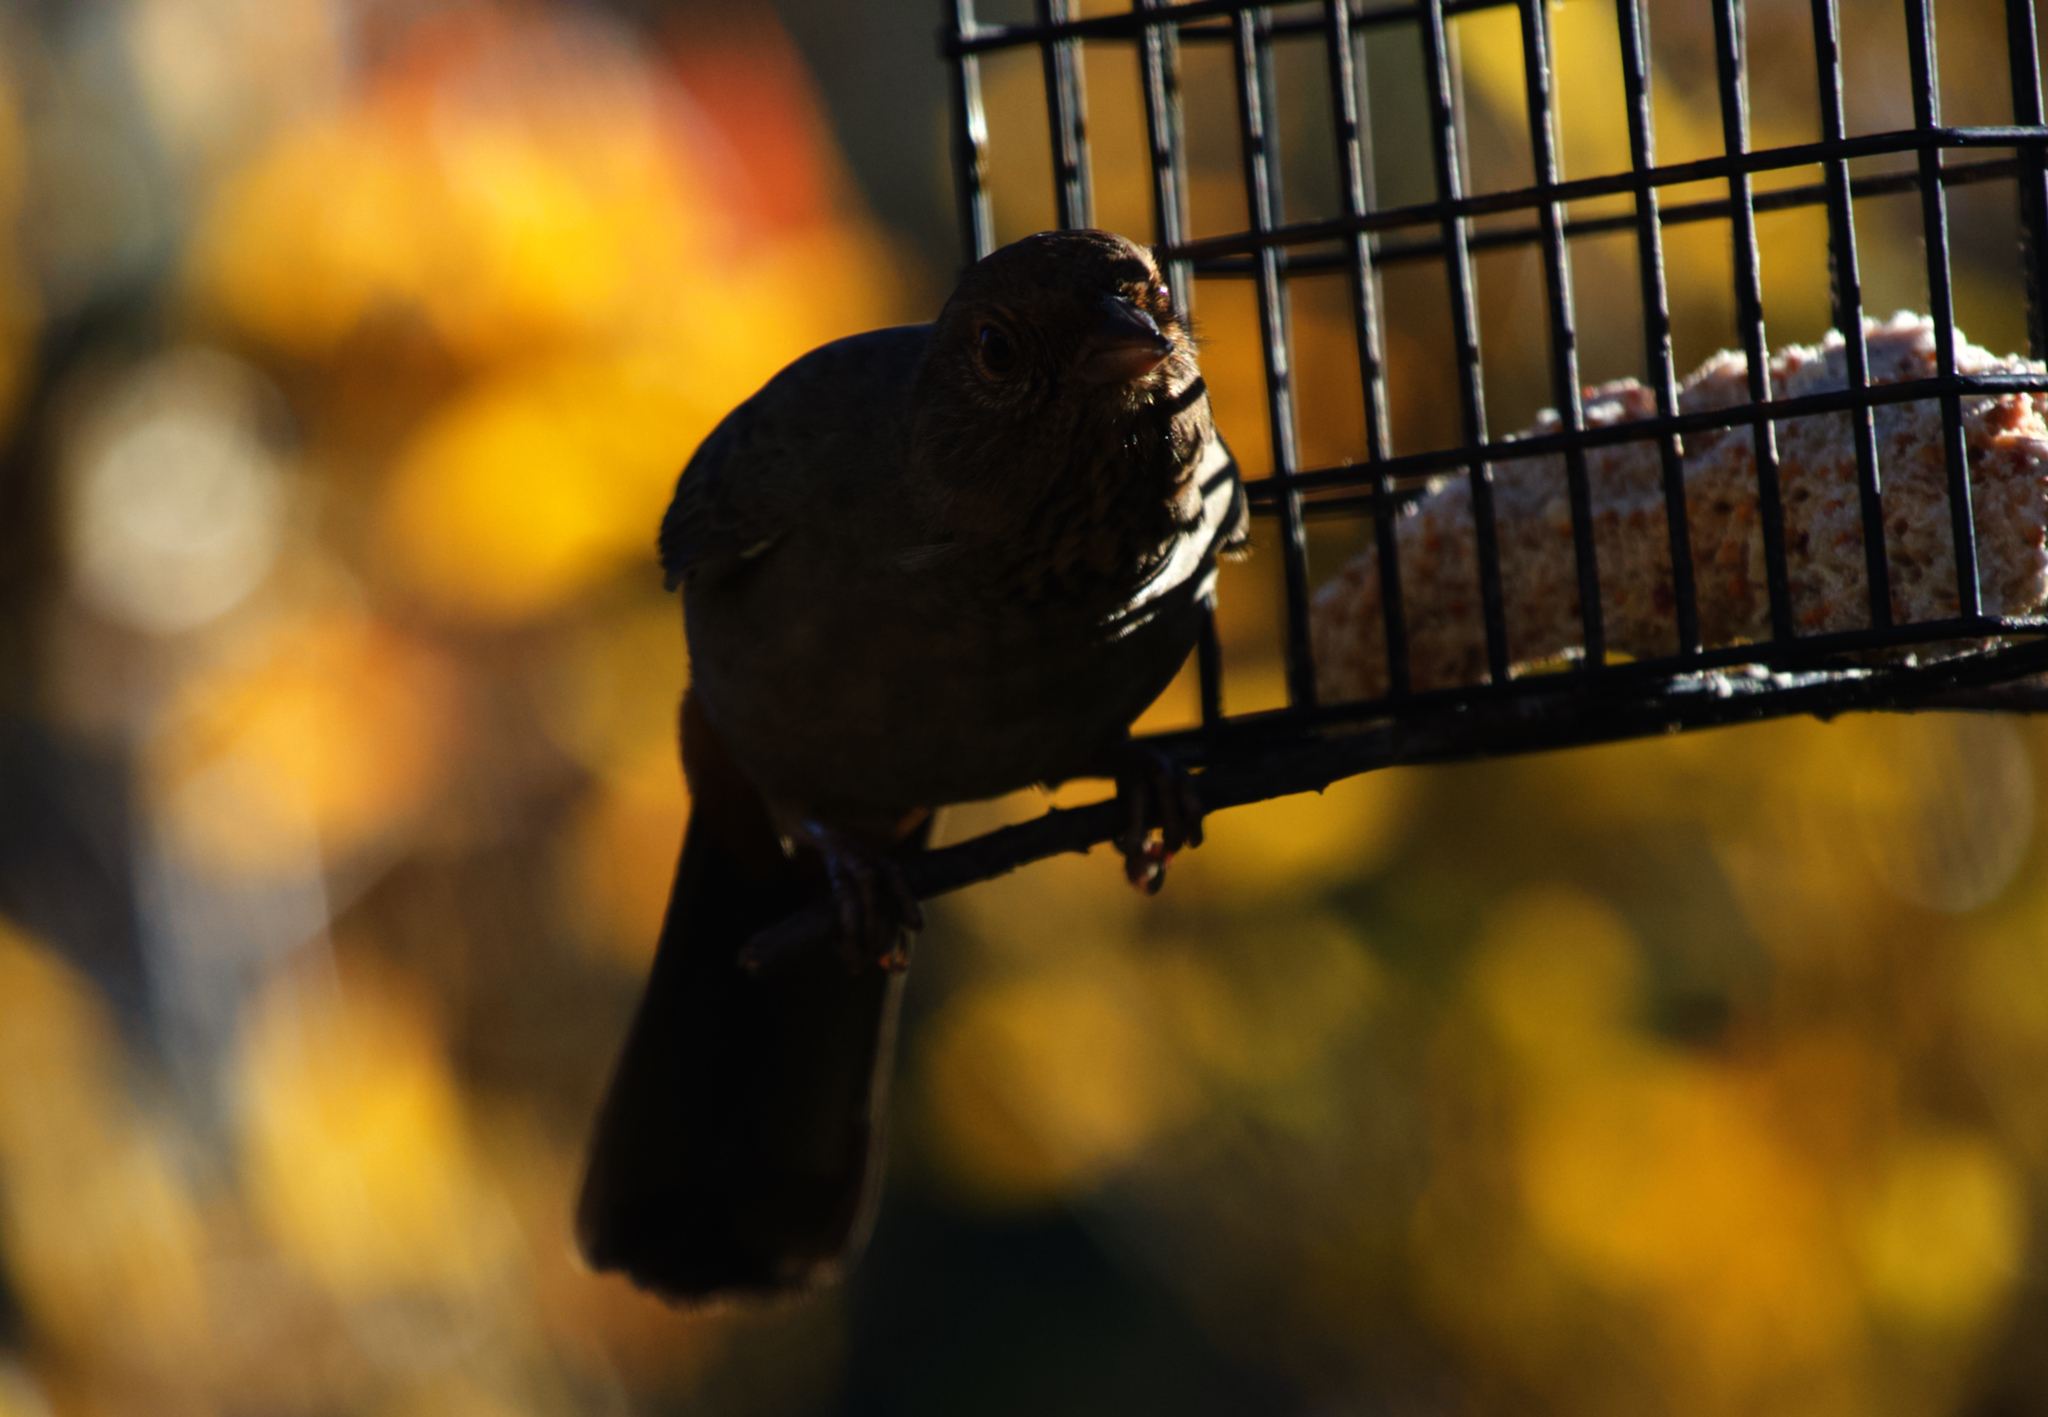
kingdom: Animalia
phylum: Chordata
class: Aves
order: Passeriformes
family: Passerellidae
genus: Melozone
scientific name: Melozone crissalis
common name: California towhee
